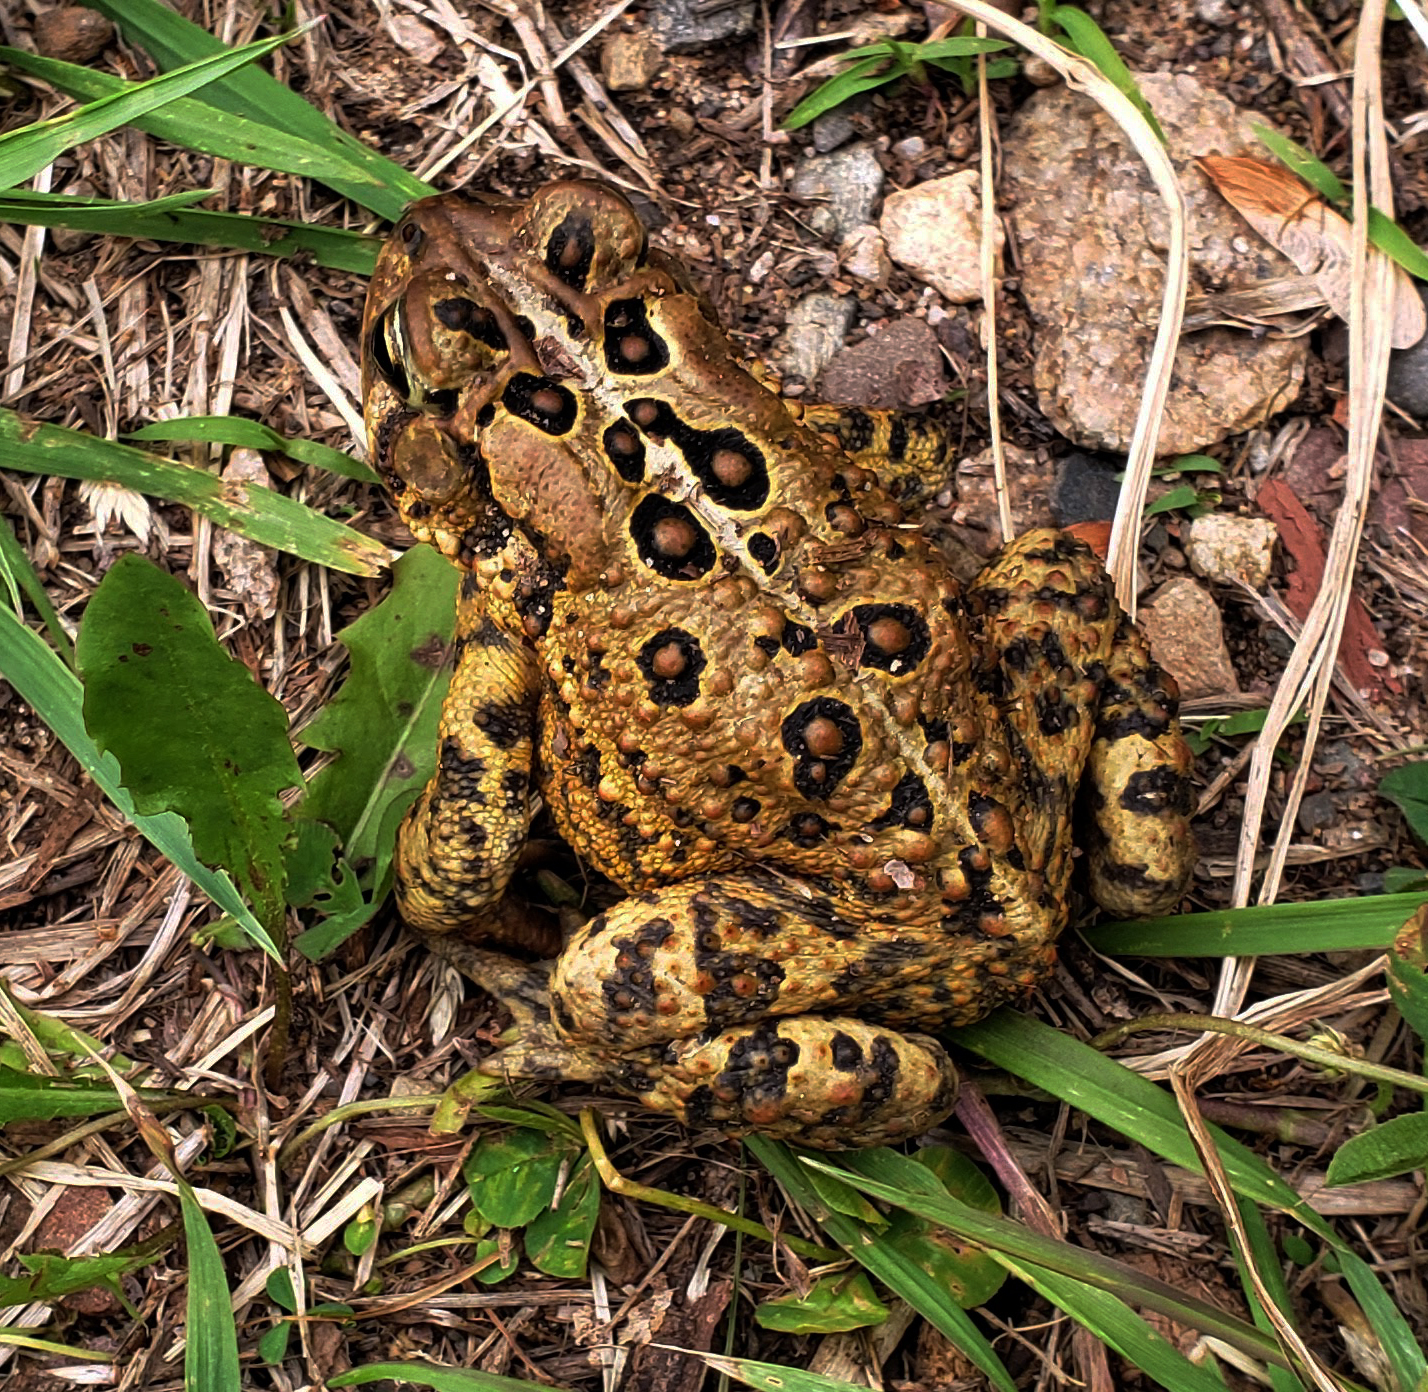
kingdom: Animalia
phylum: Chordata
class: Amphibia
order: Anura
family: Bufonidae
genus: Anaxyrus
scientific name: Anaxyrus americanus
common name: American toad
